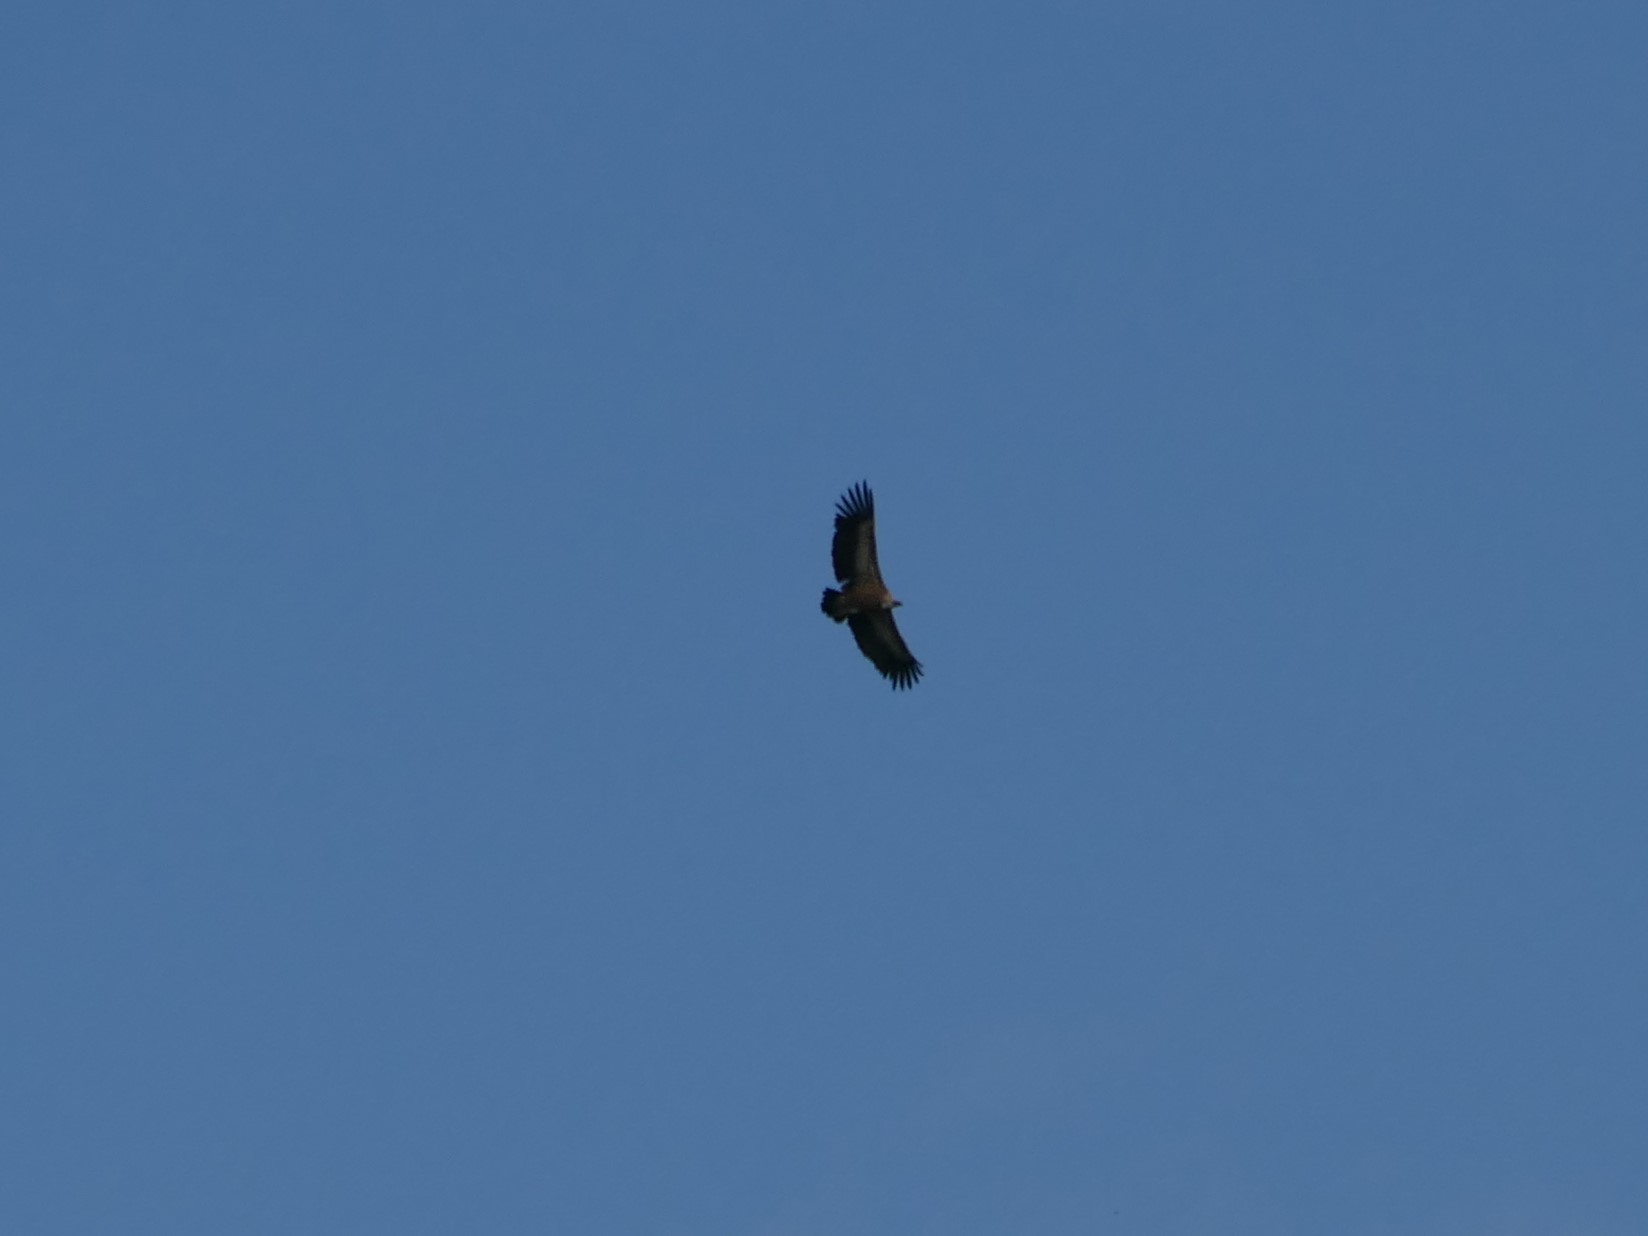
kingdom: Animalia
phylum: Chordata
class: Aves
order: Accipitriformes
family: Accipitridae
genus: Gyps
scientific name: Gyps fulvus
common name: Griffon vulture
